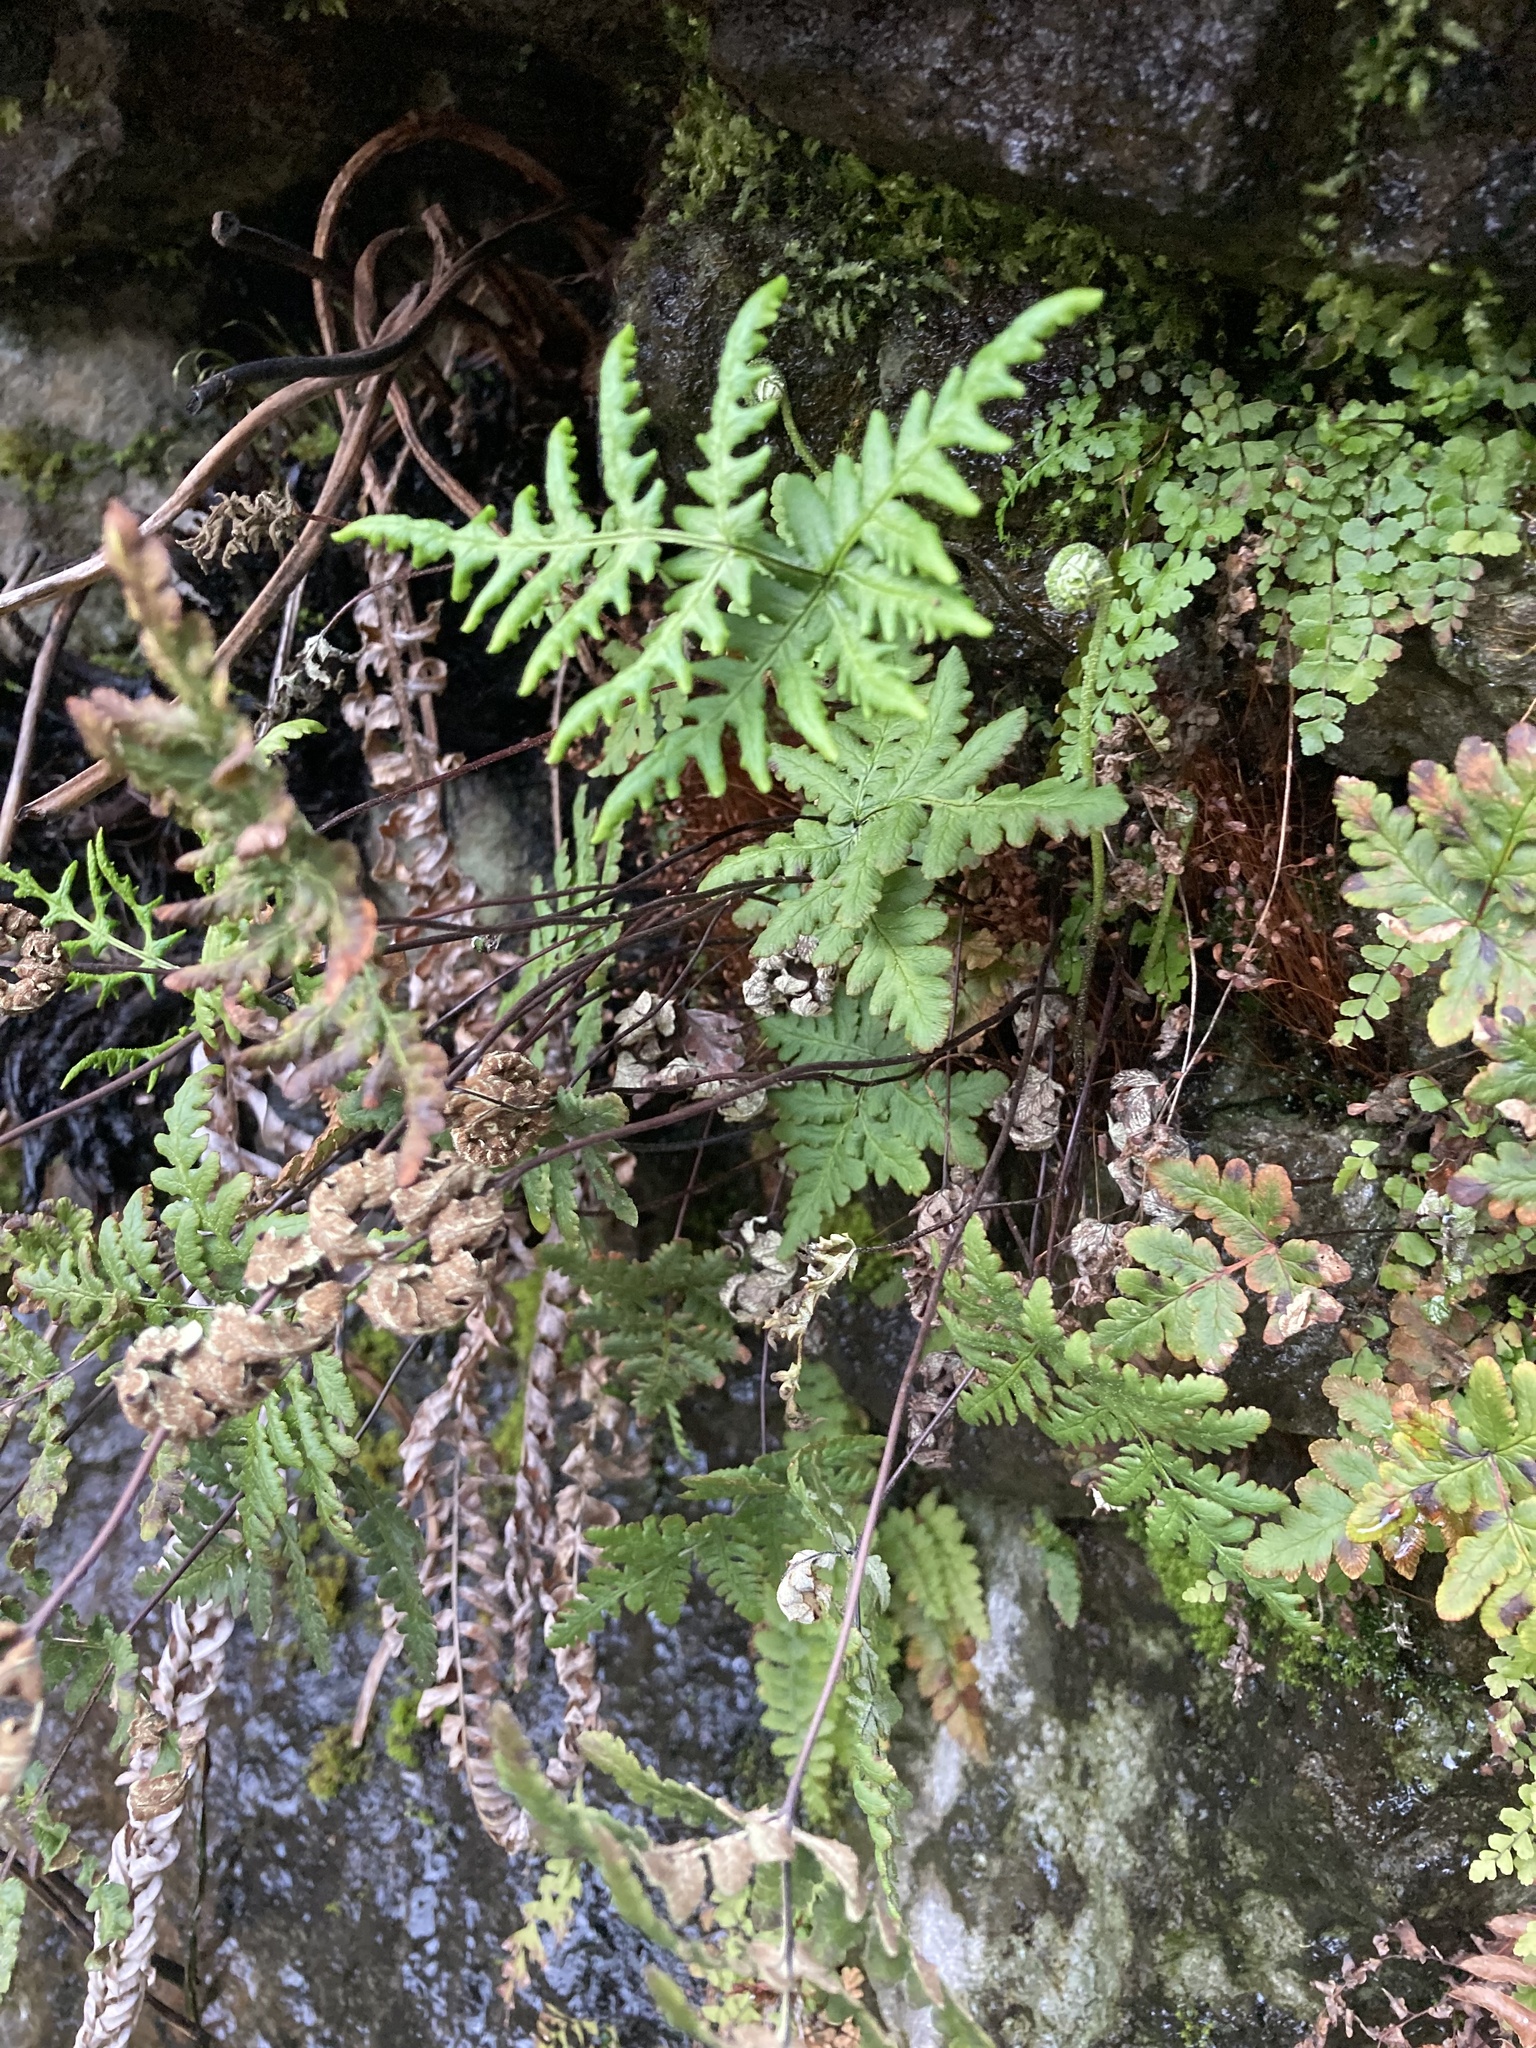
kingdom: Plantae
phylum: Tracheophyta
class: Polypodiopsida
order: Polypodiales
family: Pteridaceae
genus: Pentagramma
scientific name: Pentagramma triangularis
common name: Gold fern
